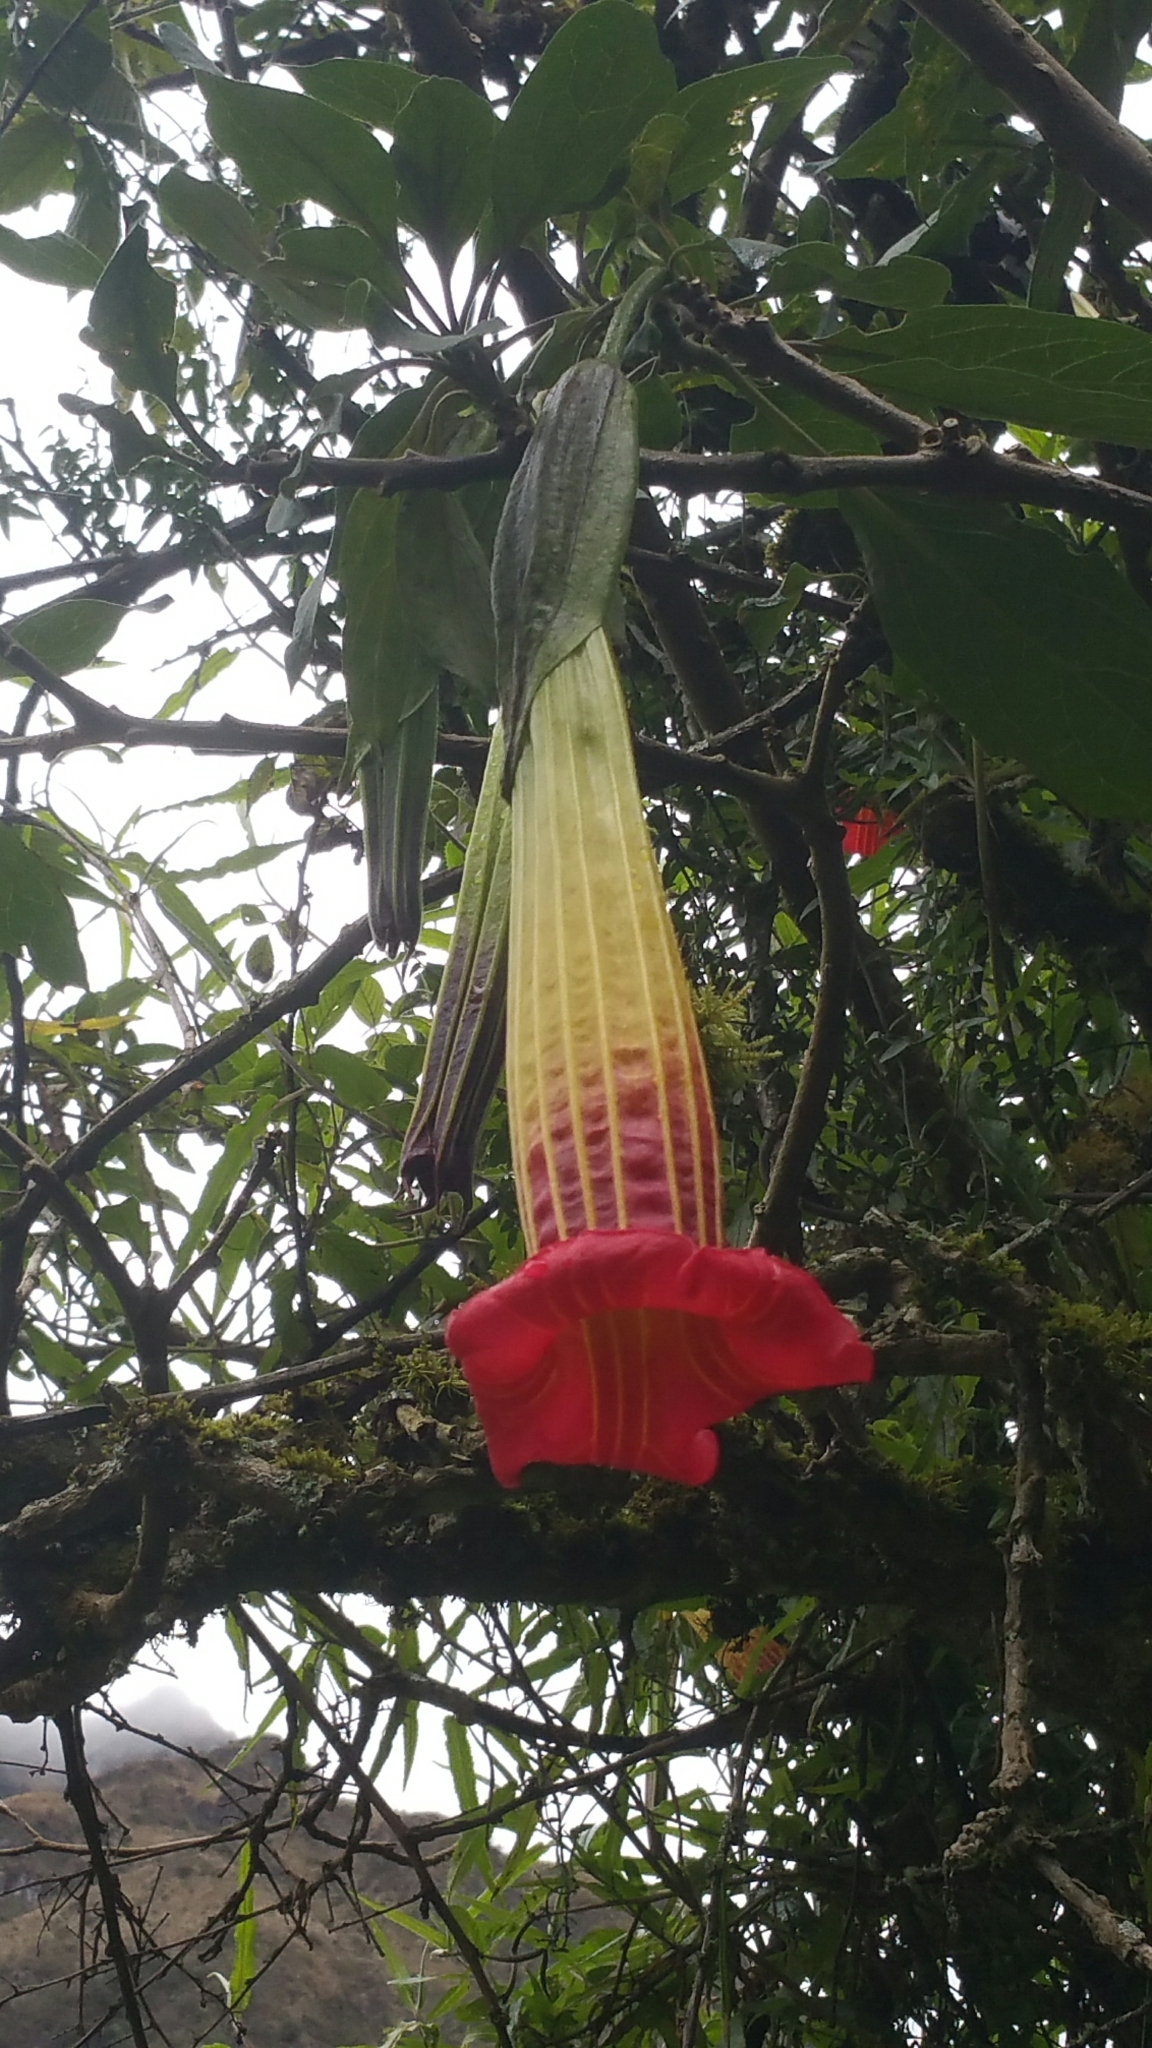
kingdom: Plantae
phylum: Tracheophyta
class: Magnoliopsida
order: Solanales
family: Solanaceae
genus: Brugmansia
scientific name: Brugmansia sanguinea
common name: Red floripontio
